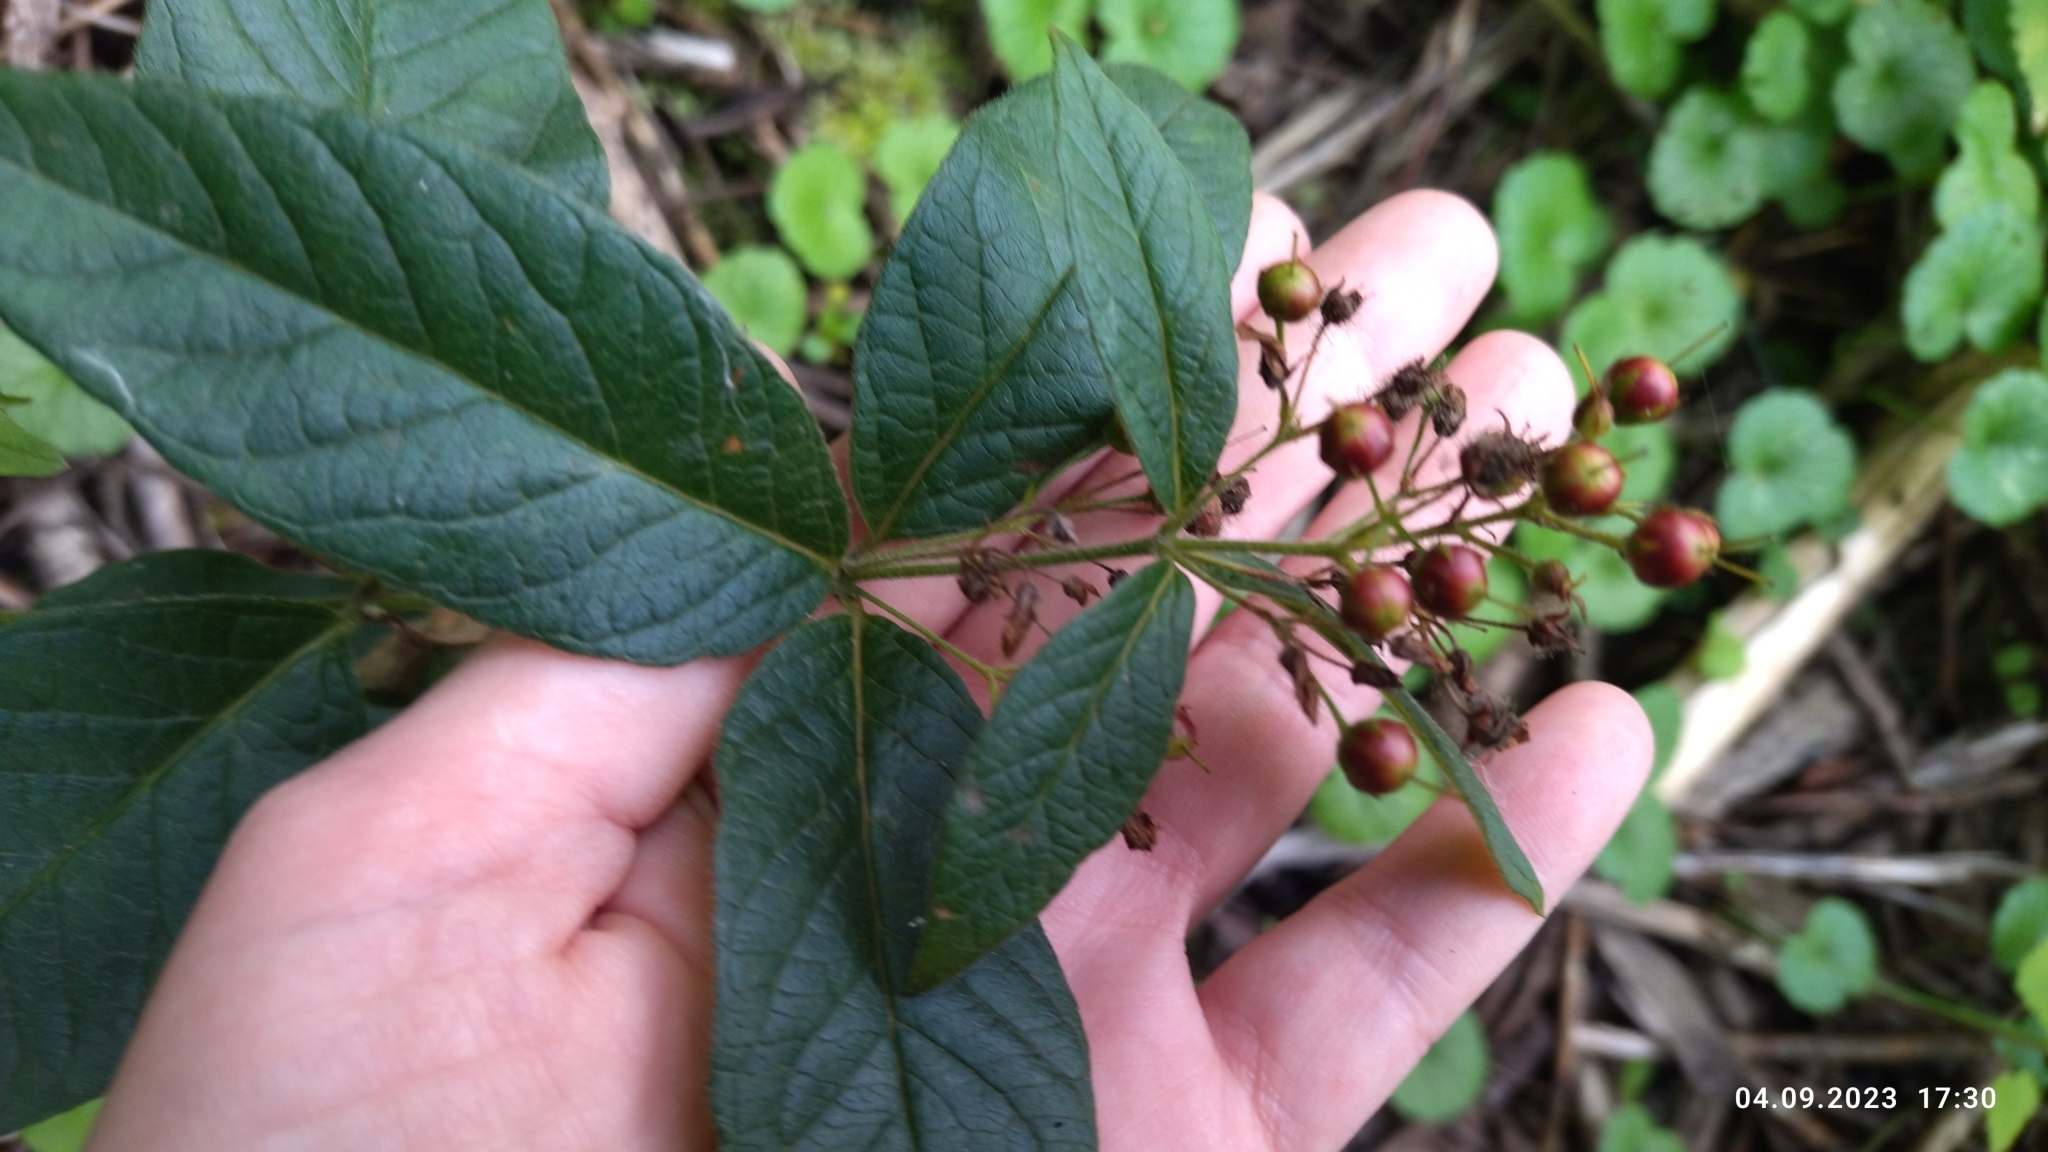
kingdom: Plantae
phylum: Tracheophyta
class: Magnoliopsida
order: Ericales
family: Primulaceae
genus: Lysimachia
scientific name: Lysimachia vulgaris
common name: Yellow loosestrife
